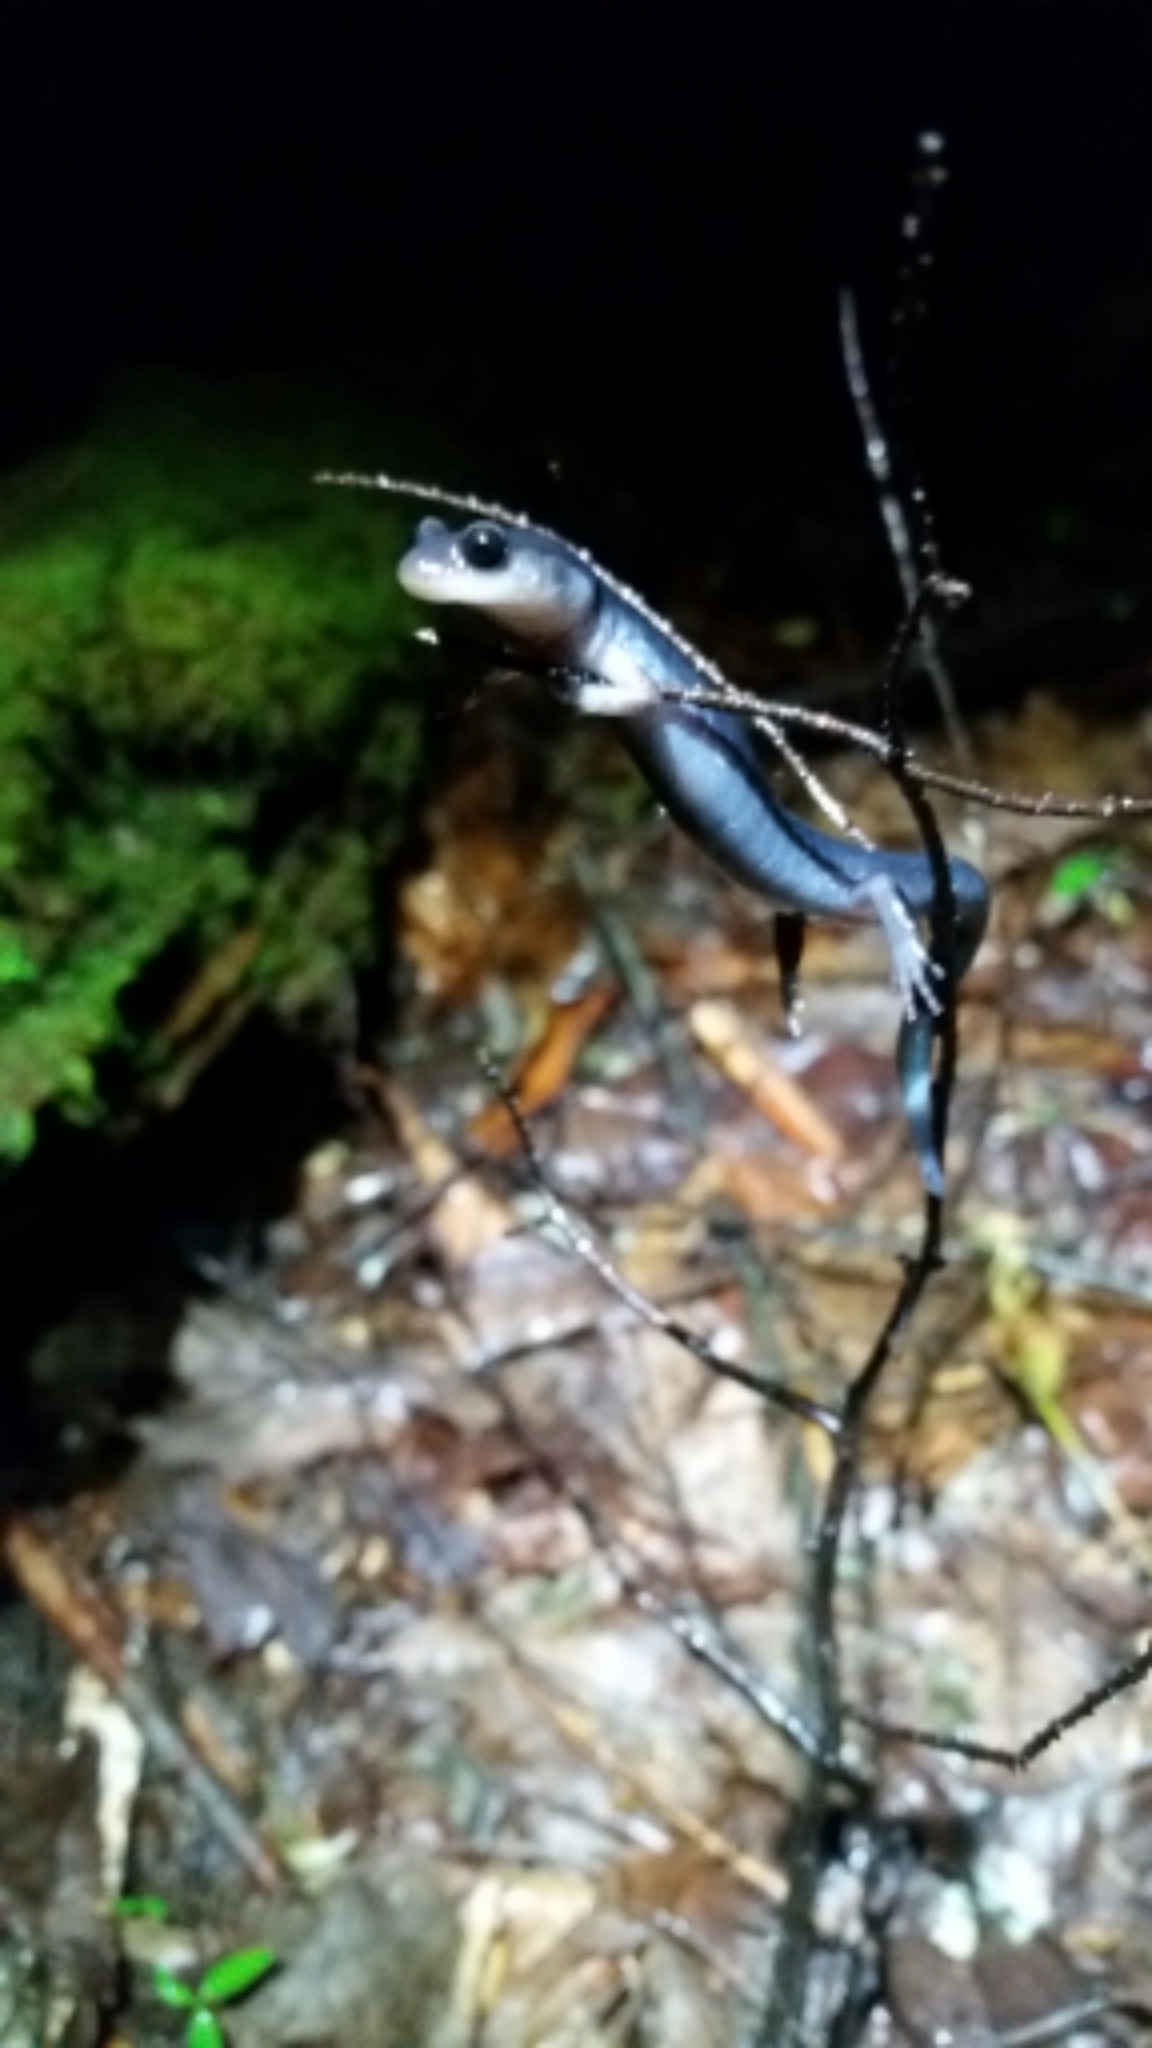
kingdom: Animalia
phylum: Chordata
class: Amphibia
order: Caudata
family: Plethodontidae
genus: Plethodon
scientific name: Plethodon shermani
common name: Red-legged salamander
